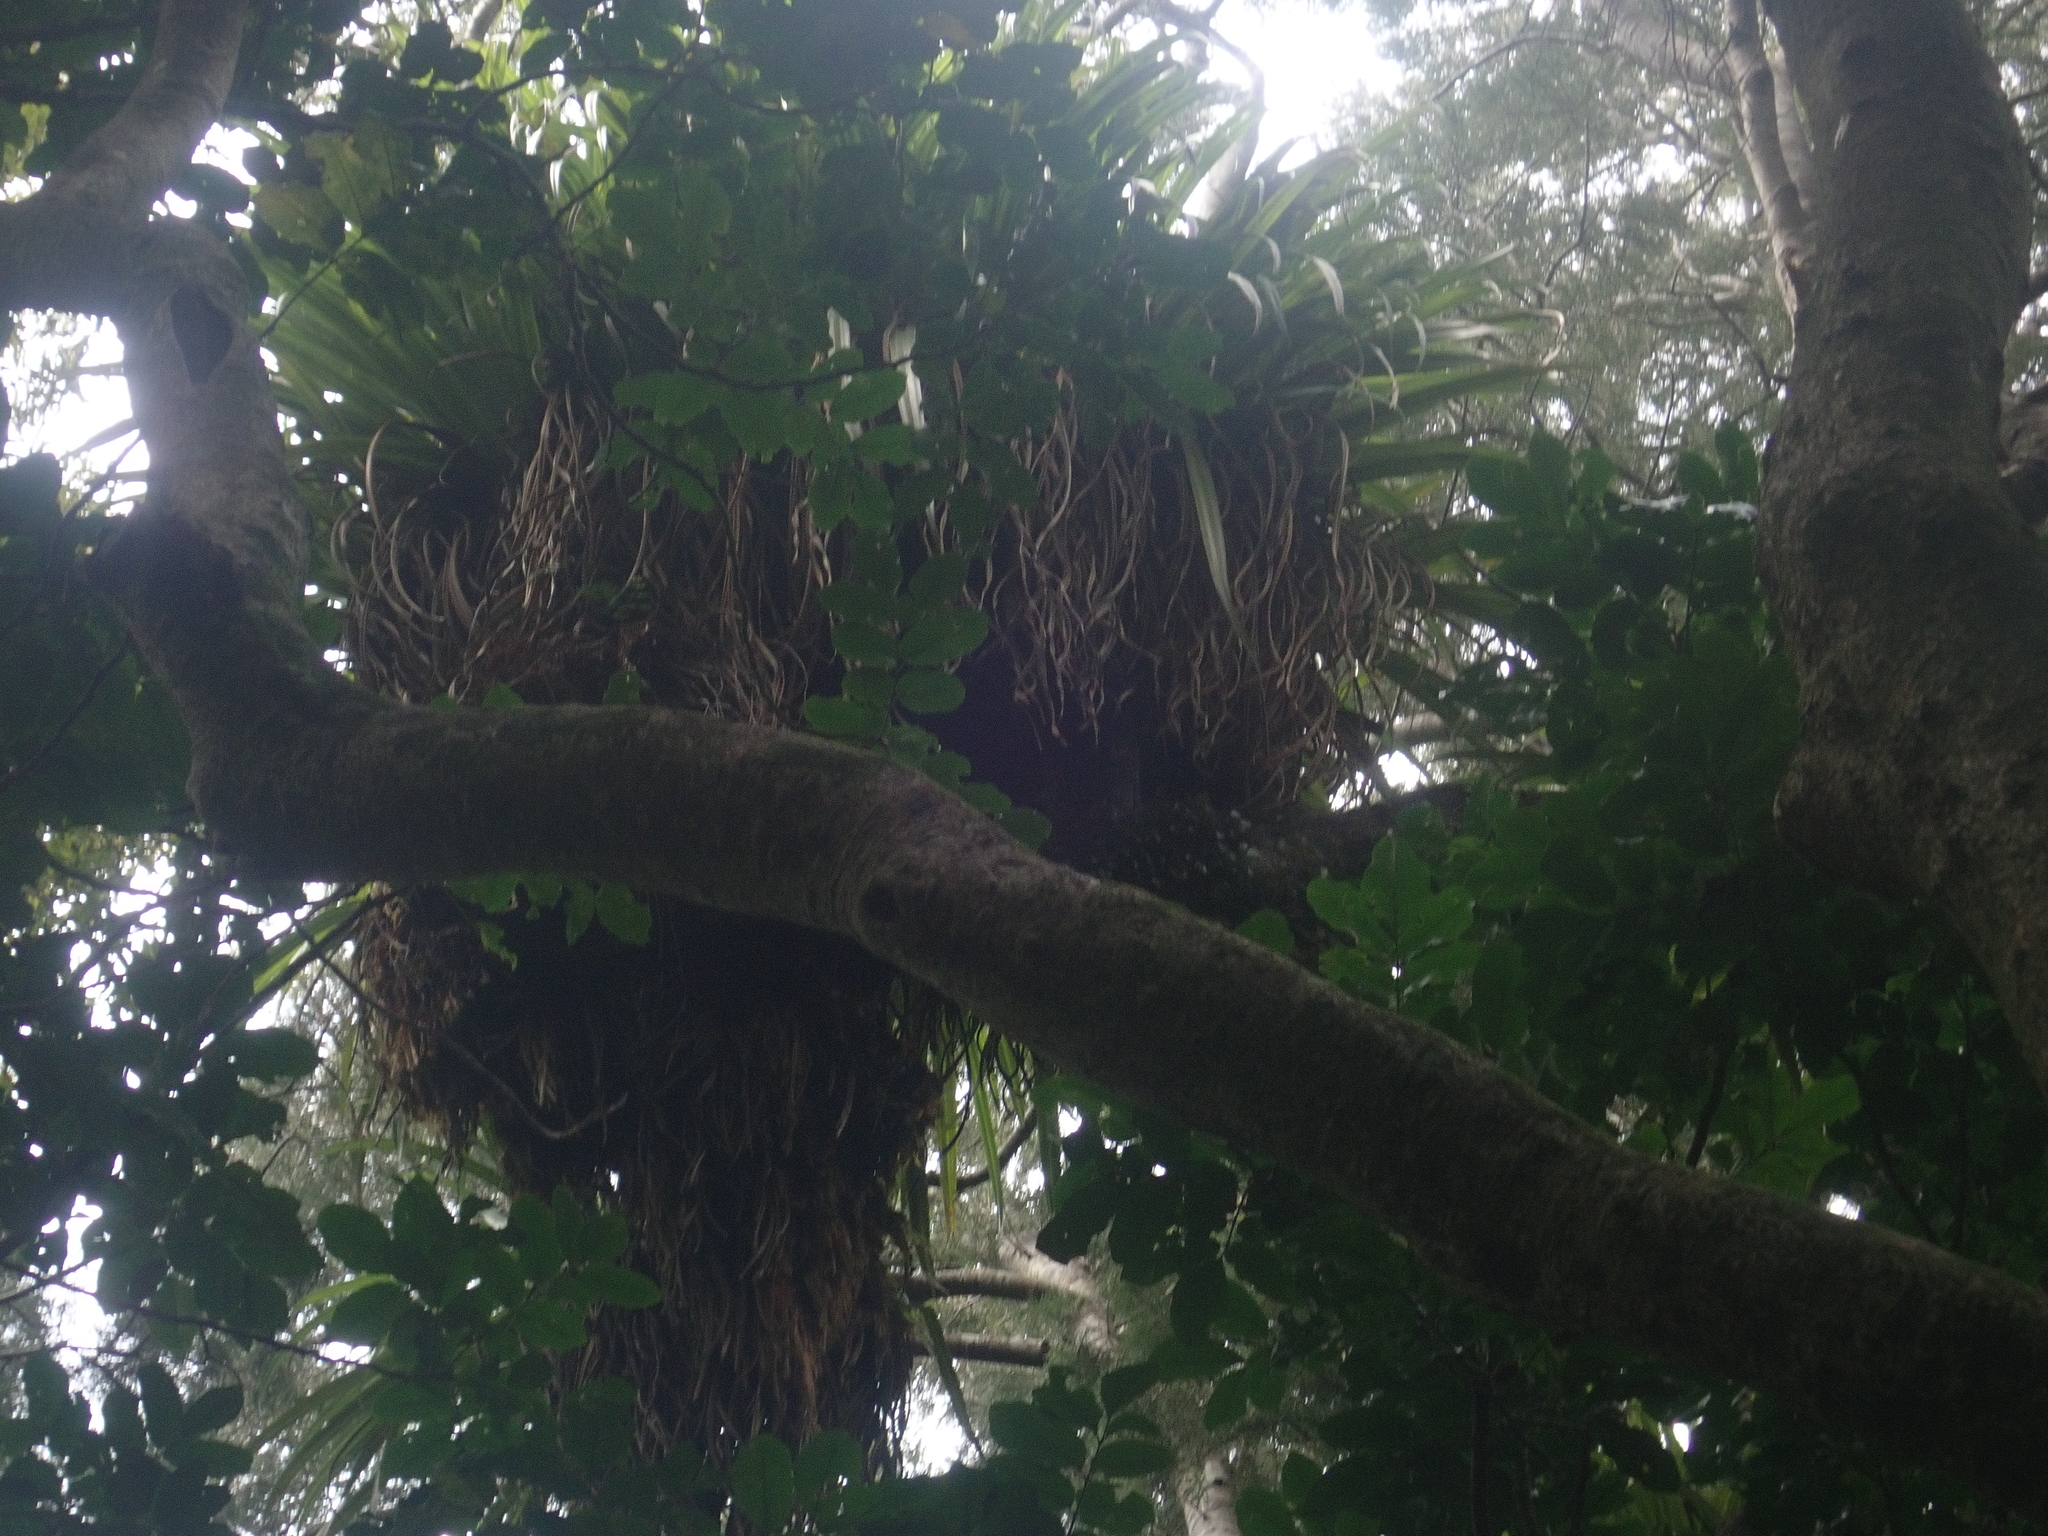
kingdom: Plantae
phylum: Tracheophyta
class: Liliopsida
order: Asparagales
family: Asteliaceae
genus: Astelia
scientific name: Astelia hastata
